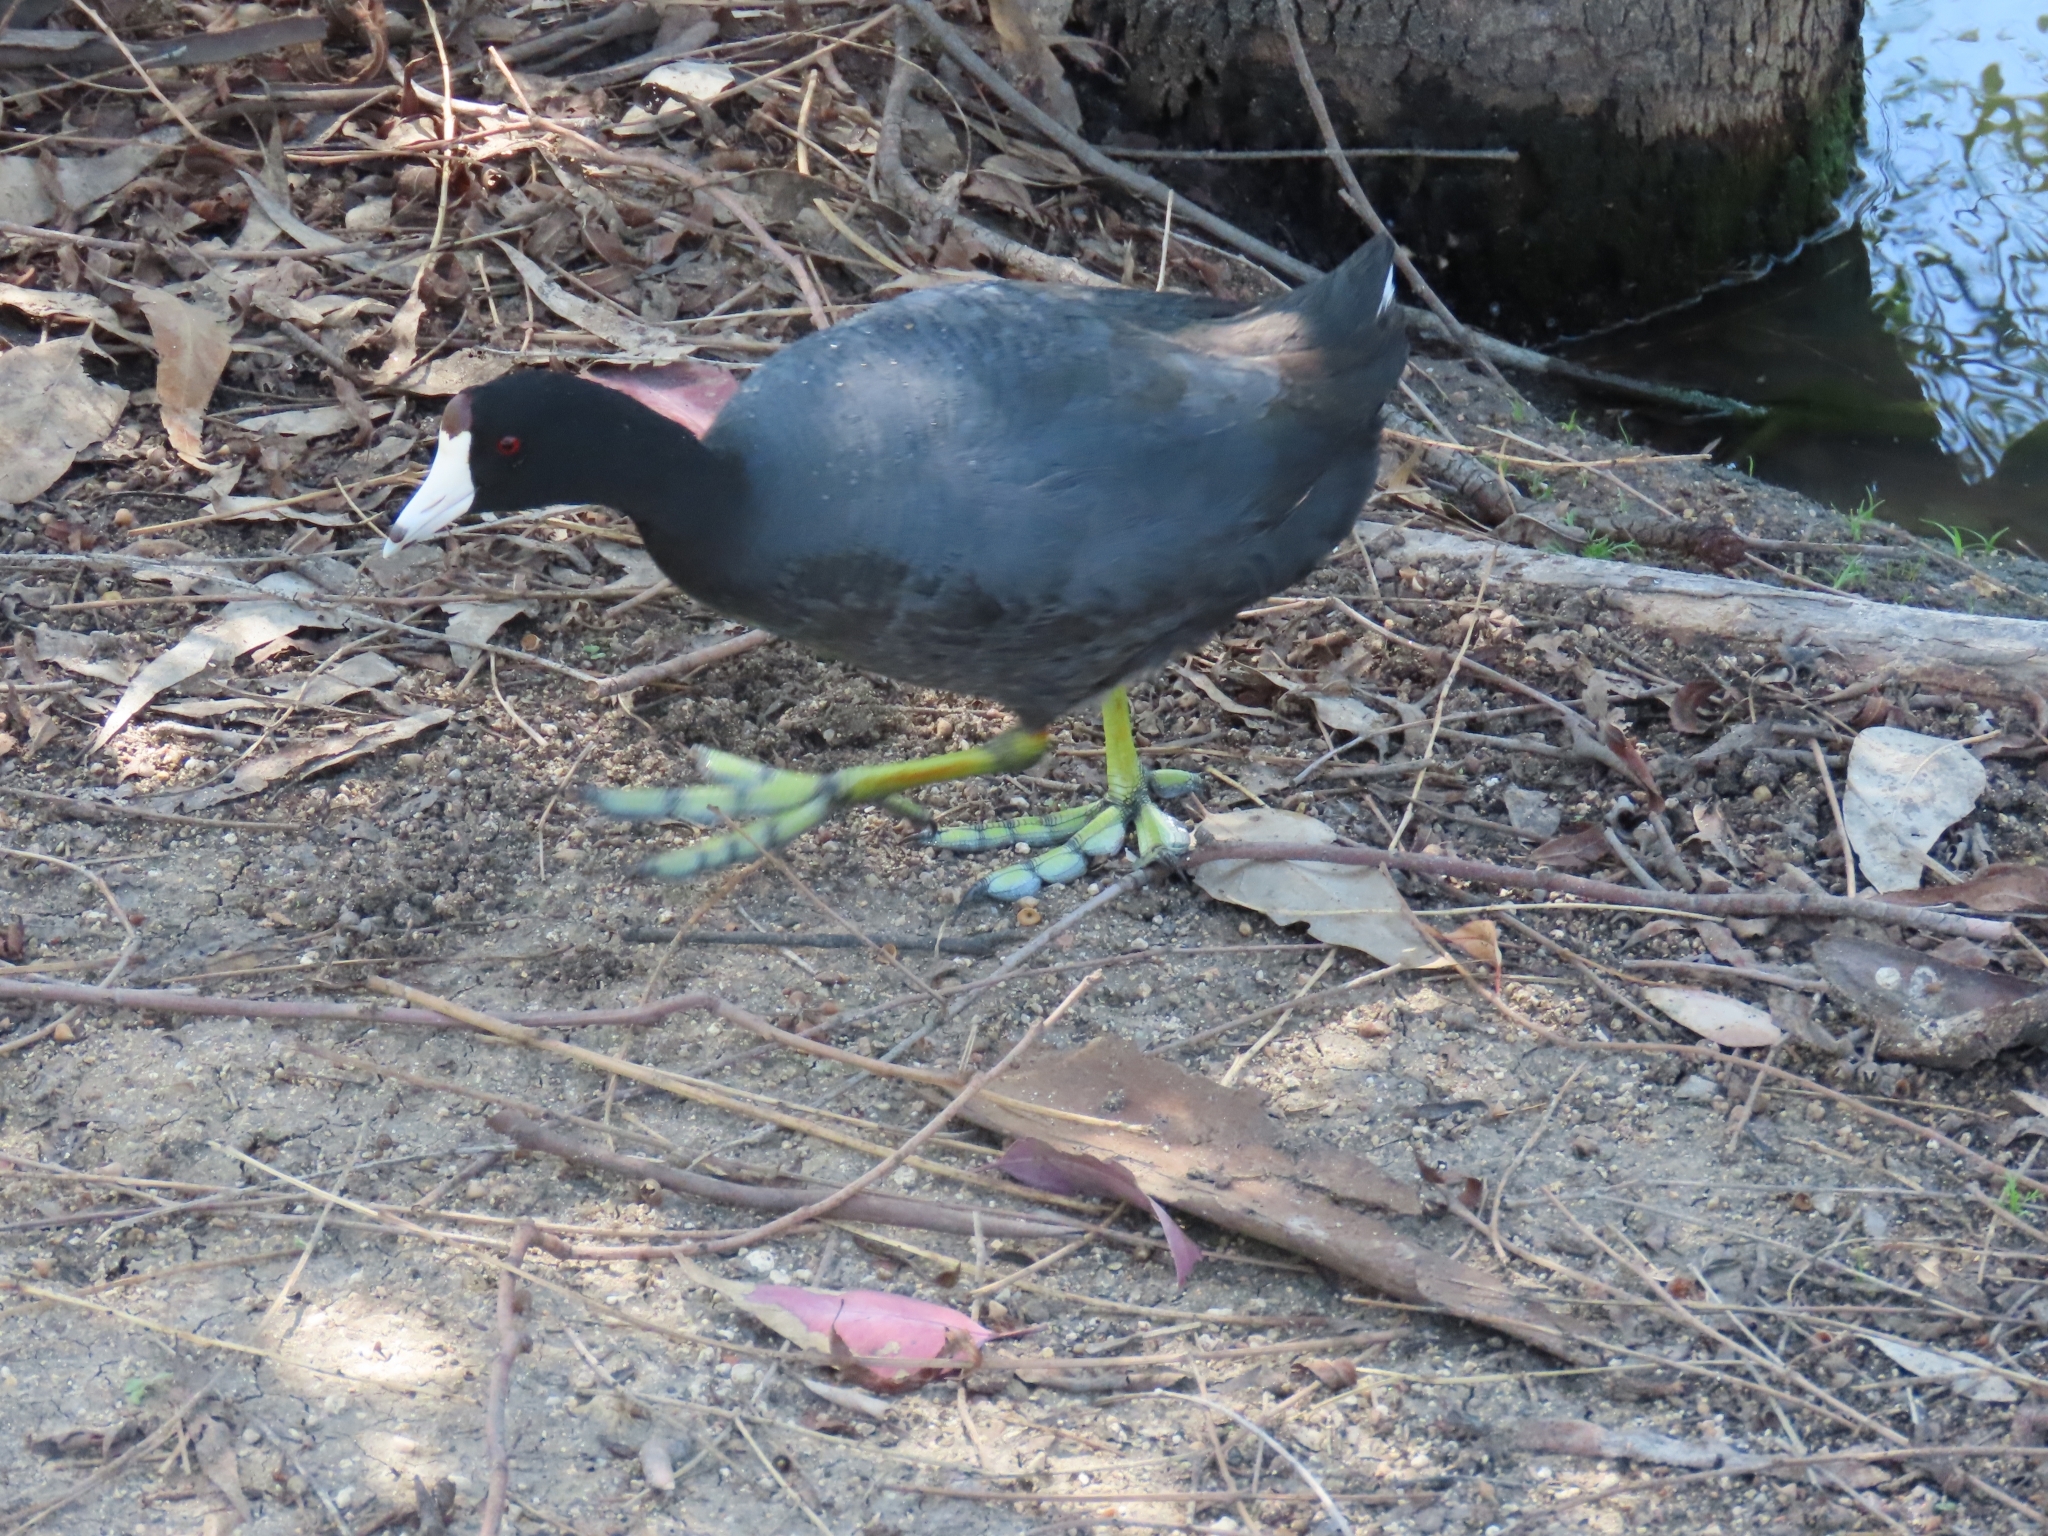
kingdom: Animalia
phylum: Chordata
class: Aves
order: Gruiformes
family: Rallidae
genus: Fulica
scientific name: Fulica americana
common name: American coot
